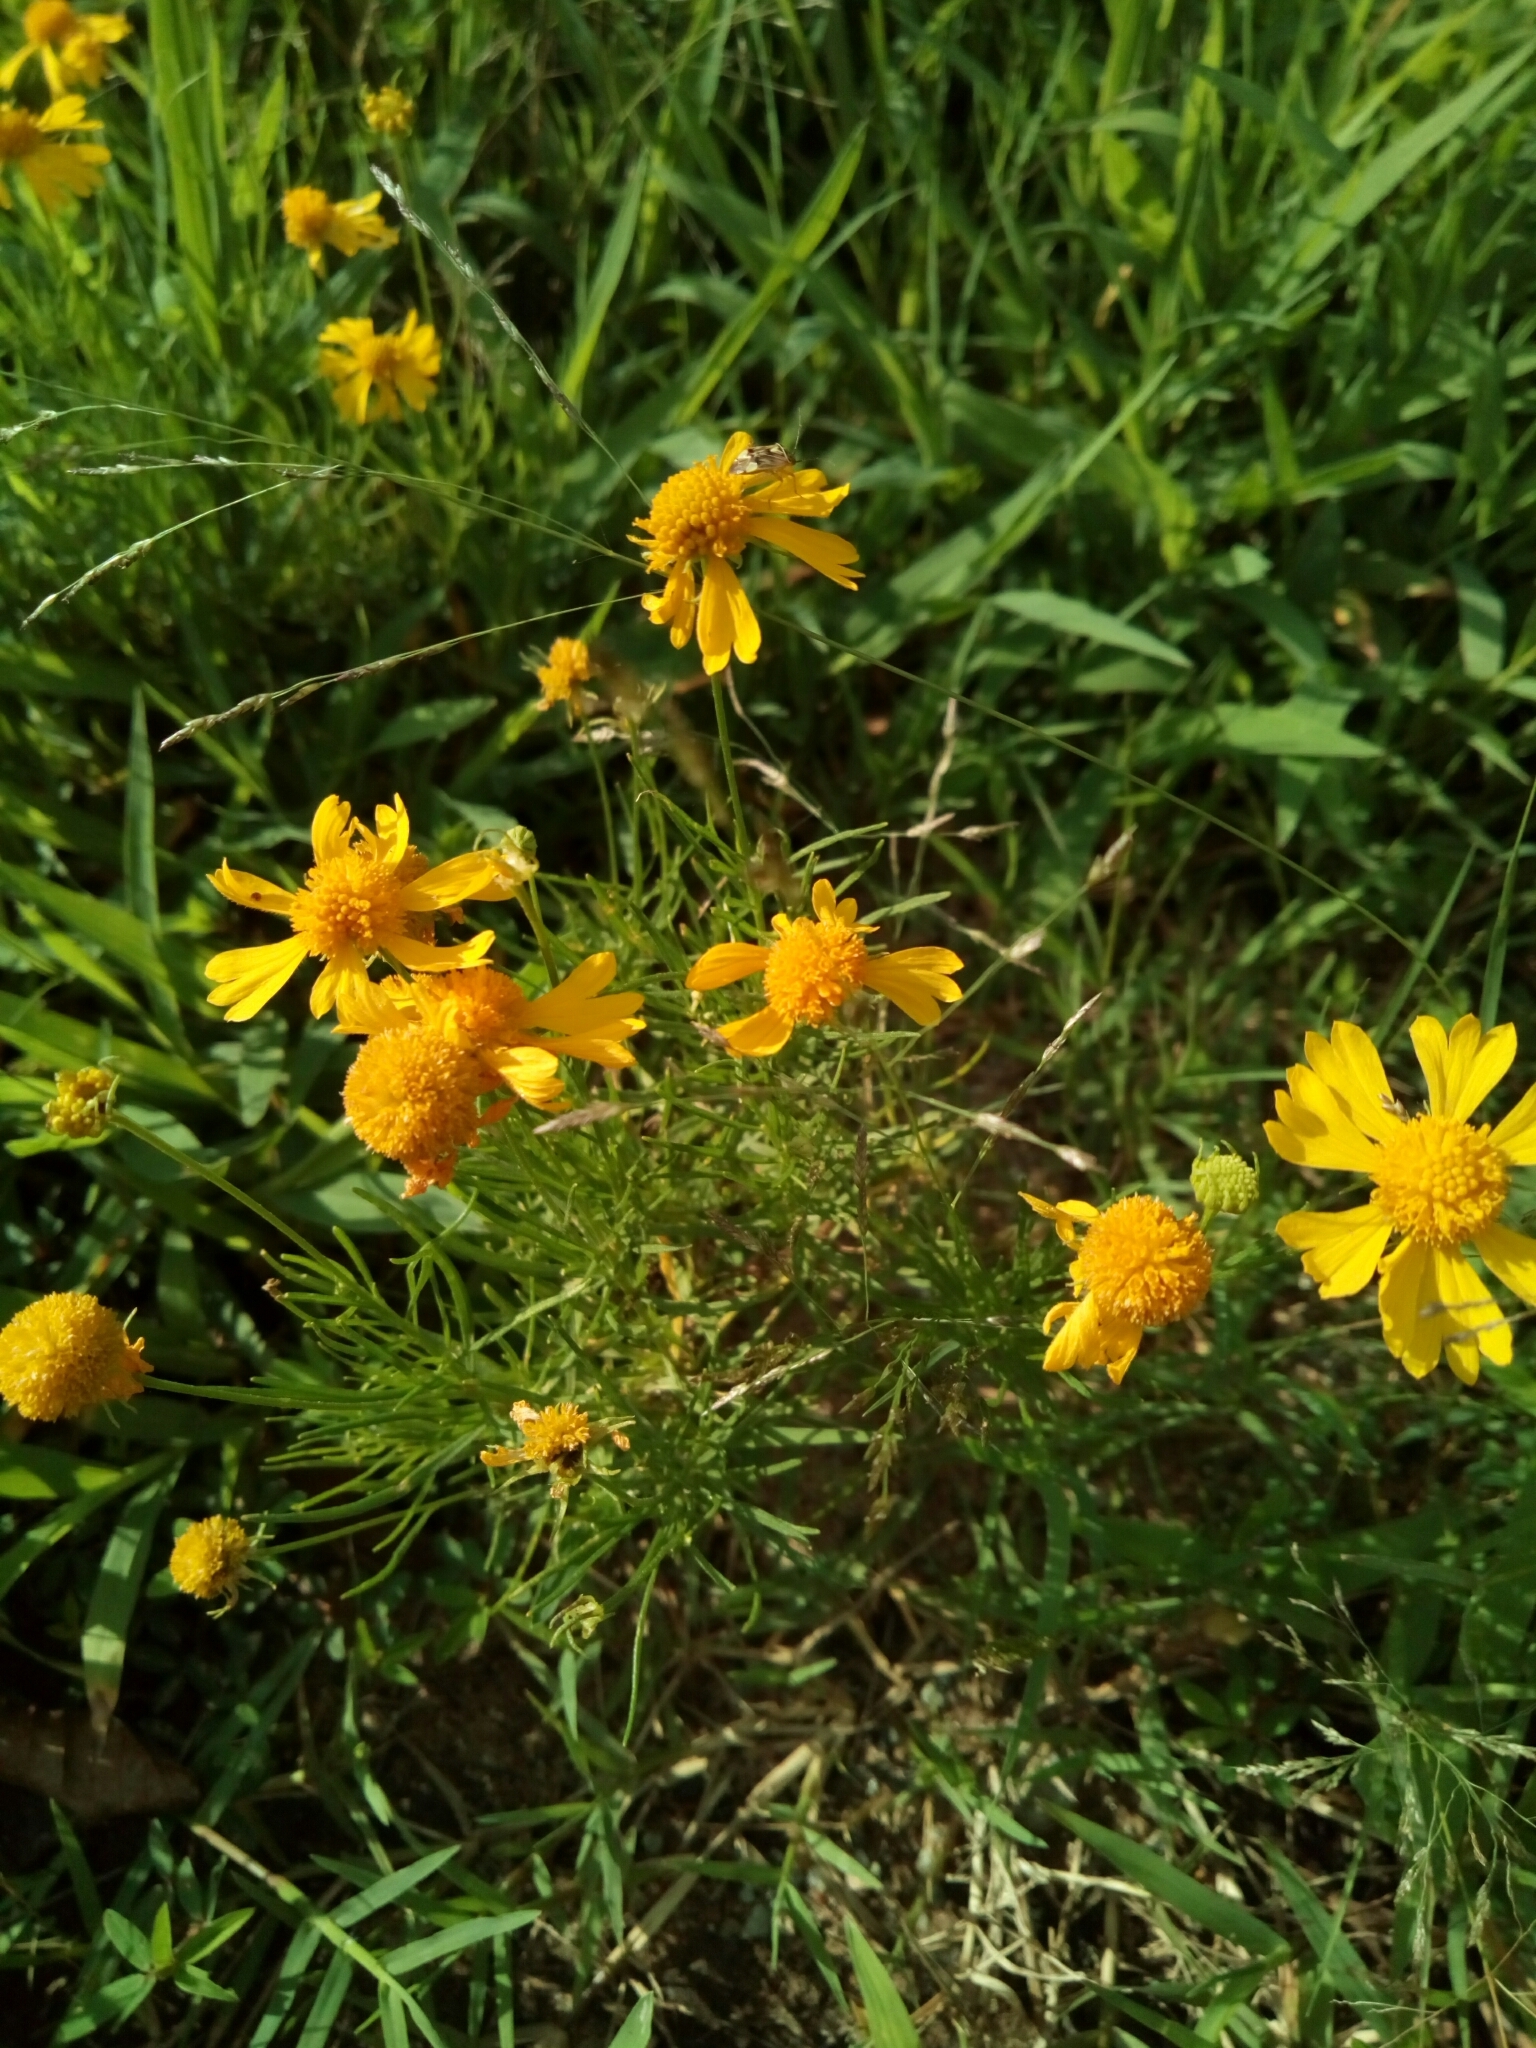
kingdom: Plantae
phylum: Tracheophyta
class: Magnoliopsida
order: Asterales
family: Asteraceae
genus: Helenium
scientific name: Helenium amarum
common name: Bitter sneezeweed
